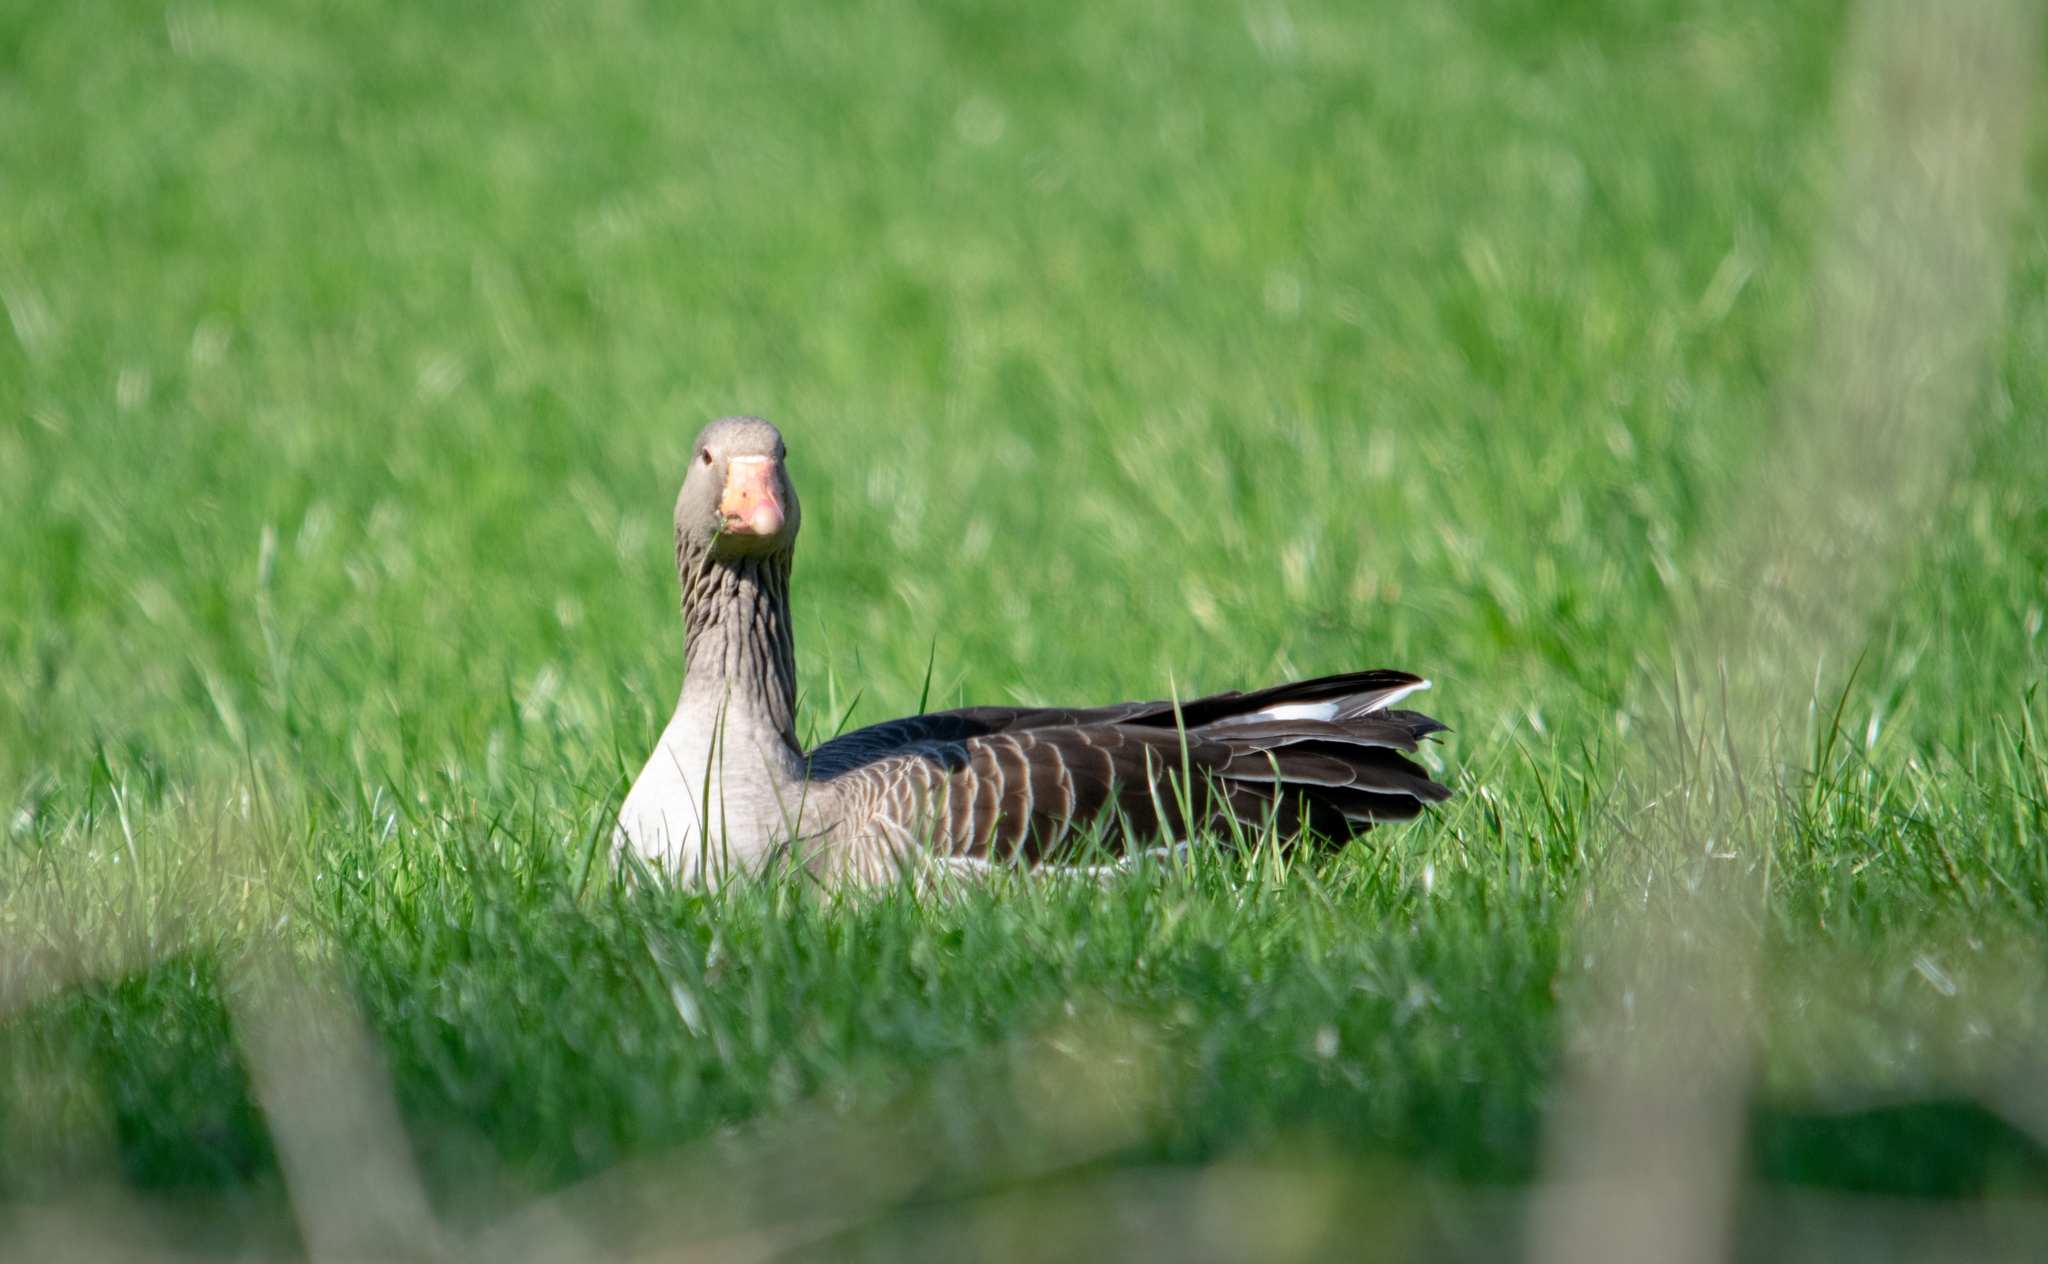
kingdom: Animalia
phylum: Chordata
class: Aves
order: Anseriformes
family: Anatidae
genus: Anser
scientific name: Anser anser
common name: Greylag goose
